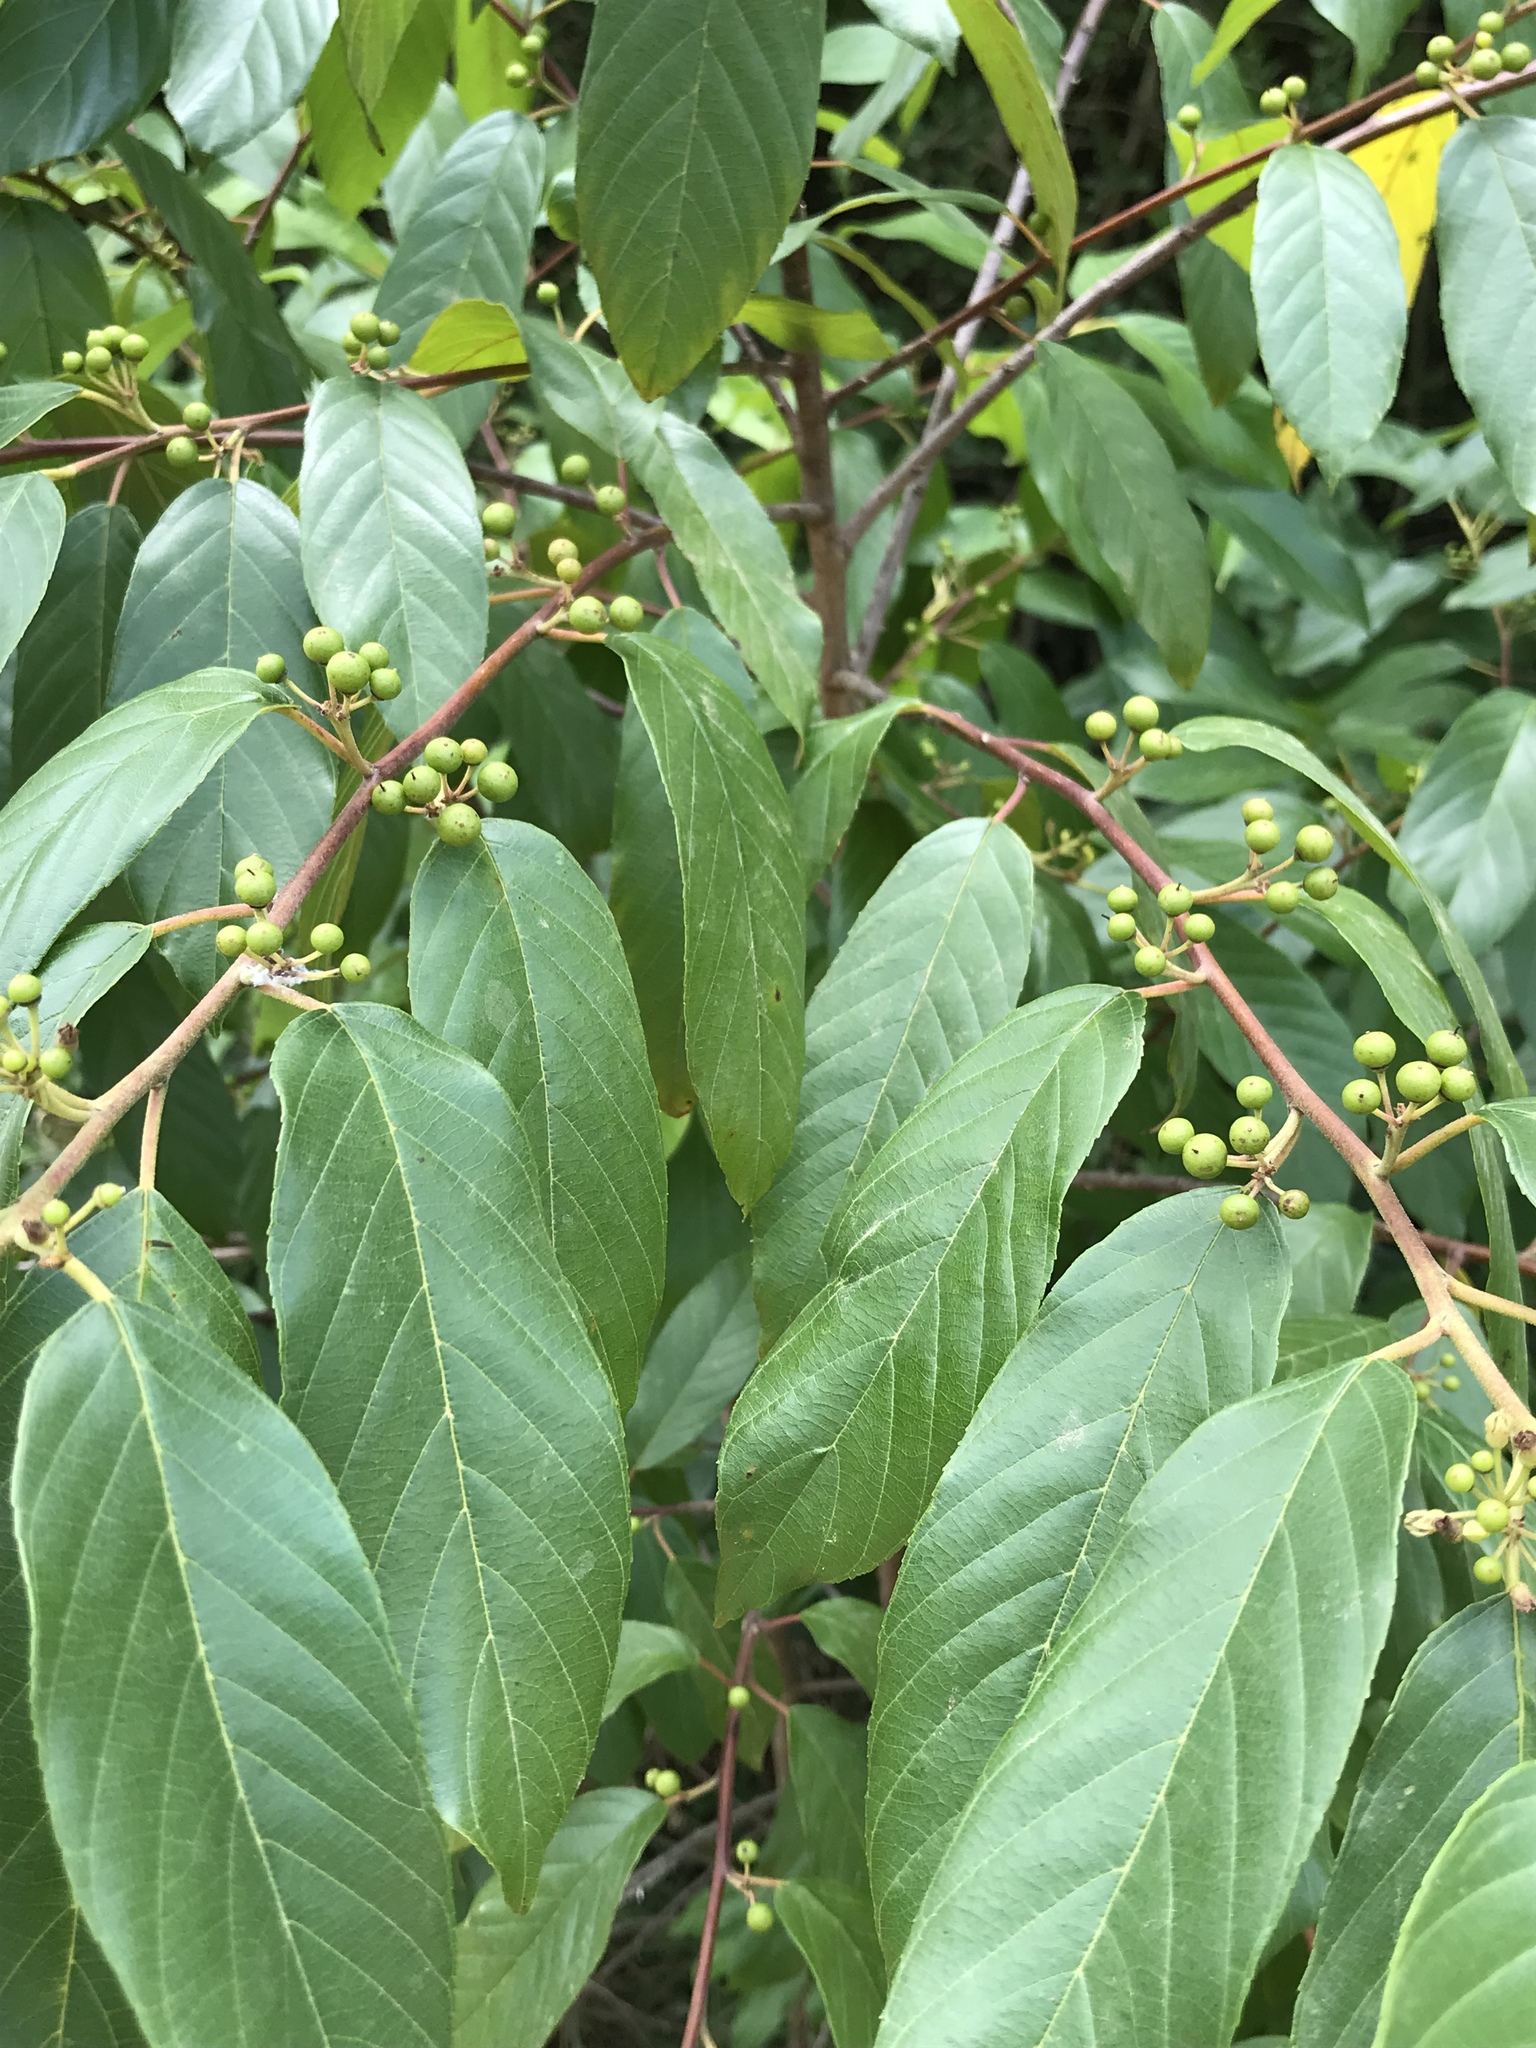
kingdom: Plantae
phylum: Tracheophyta
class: Magnoliopsida
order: Rosales
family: Rhamnaceae
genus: Frangula
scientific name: Frangula caroliniana
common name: Carolina buckthorn
